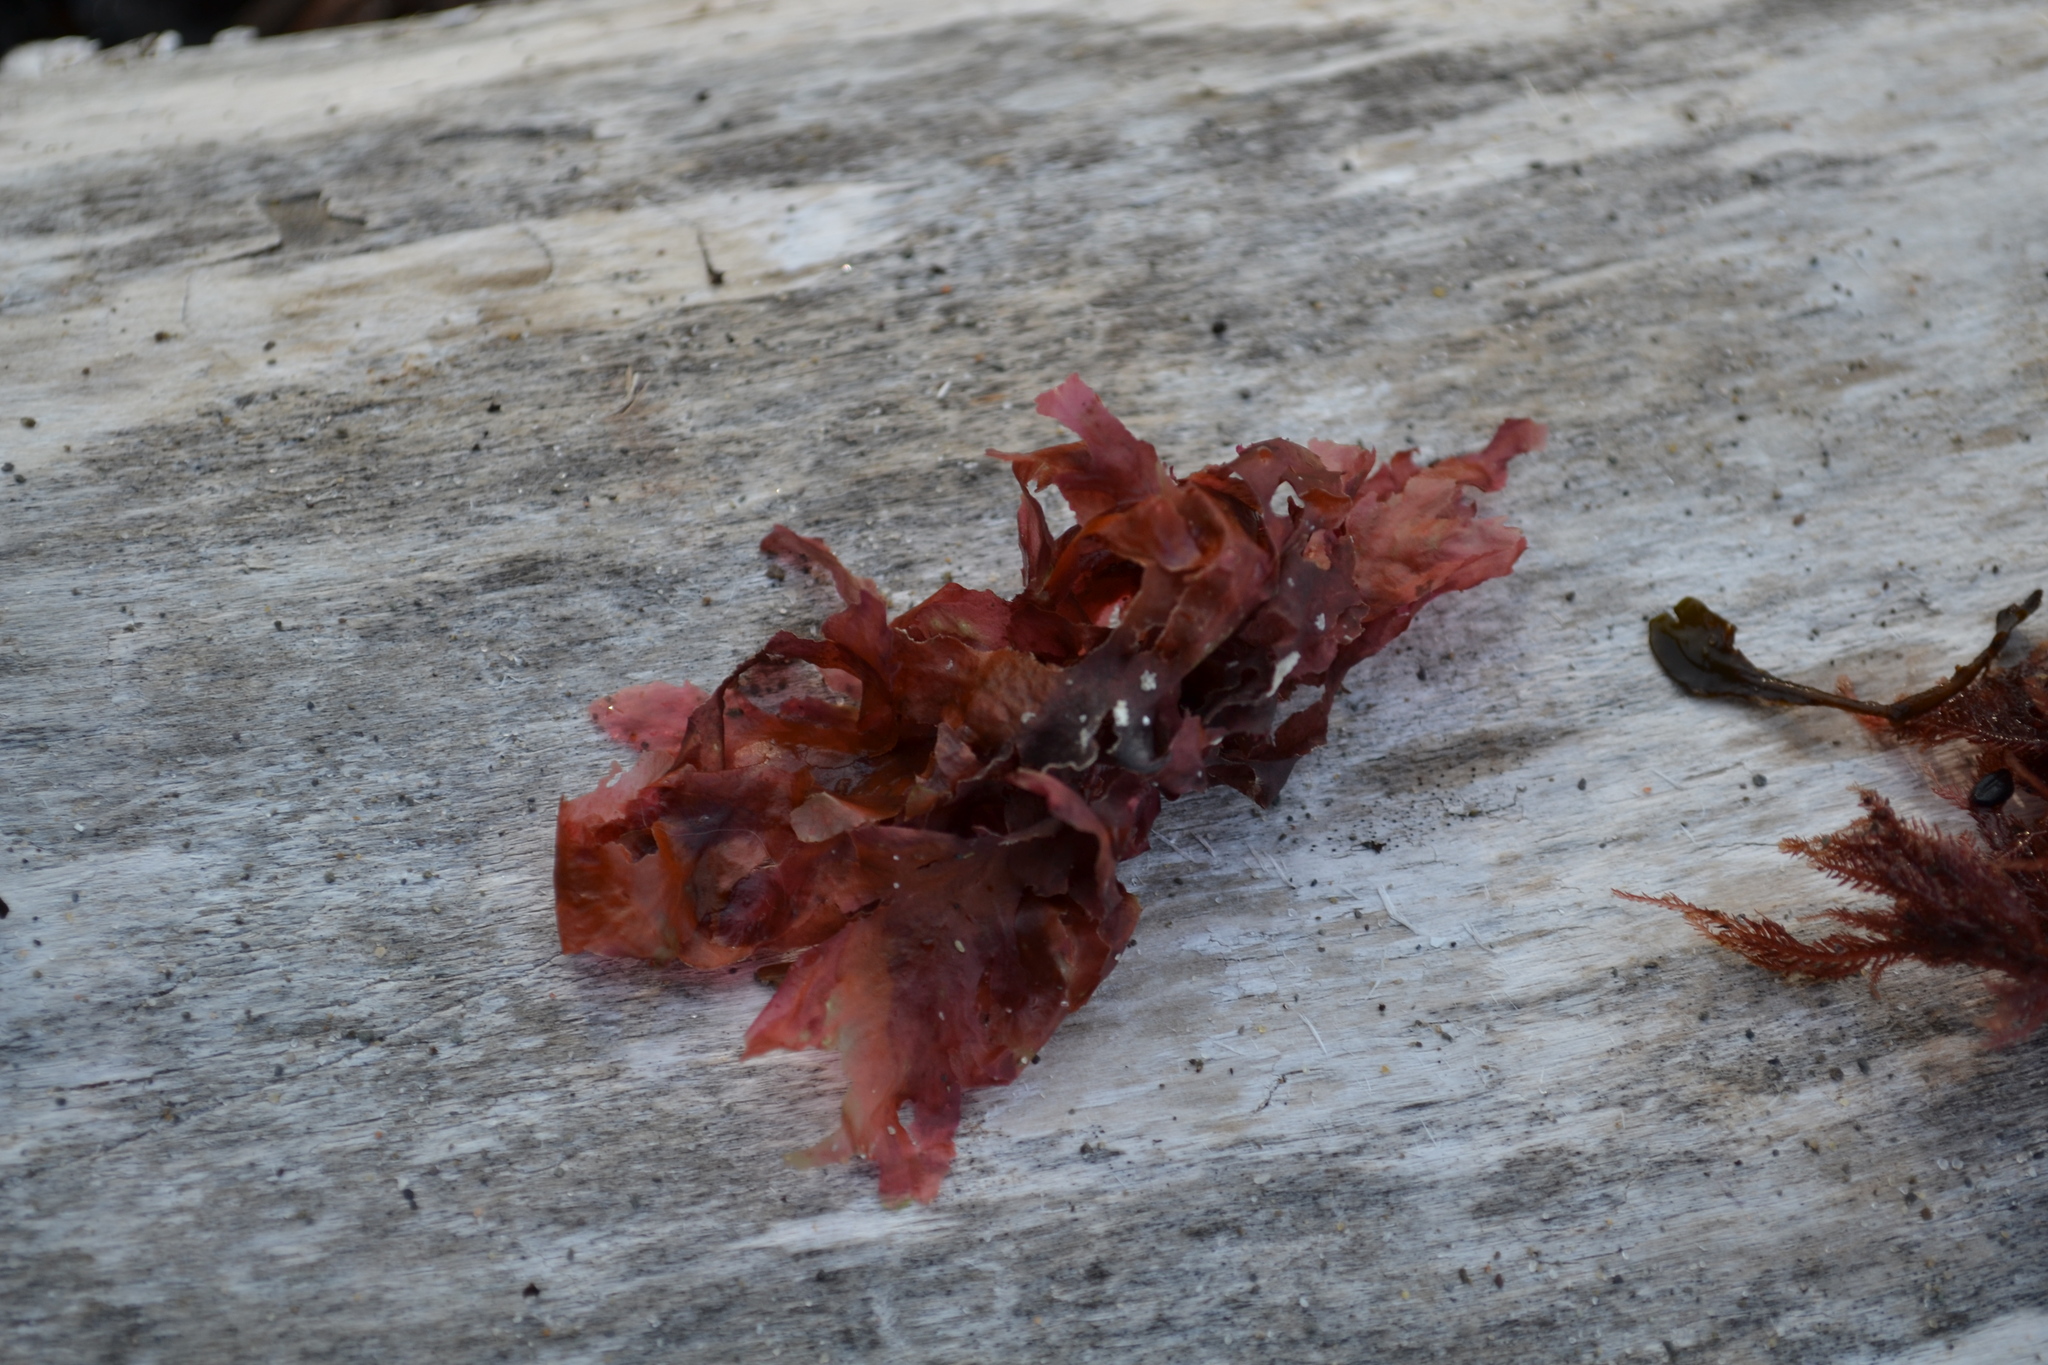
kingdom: Plantae
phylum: Rhodophyta
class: Florideophyceae
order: Ceramiales
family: Delesseriaceae
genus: Phycodrys
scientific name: Phycodrys rubens
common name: Sea oak
